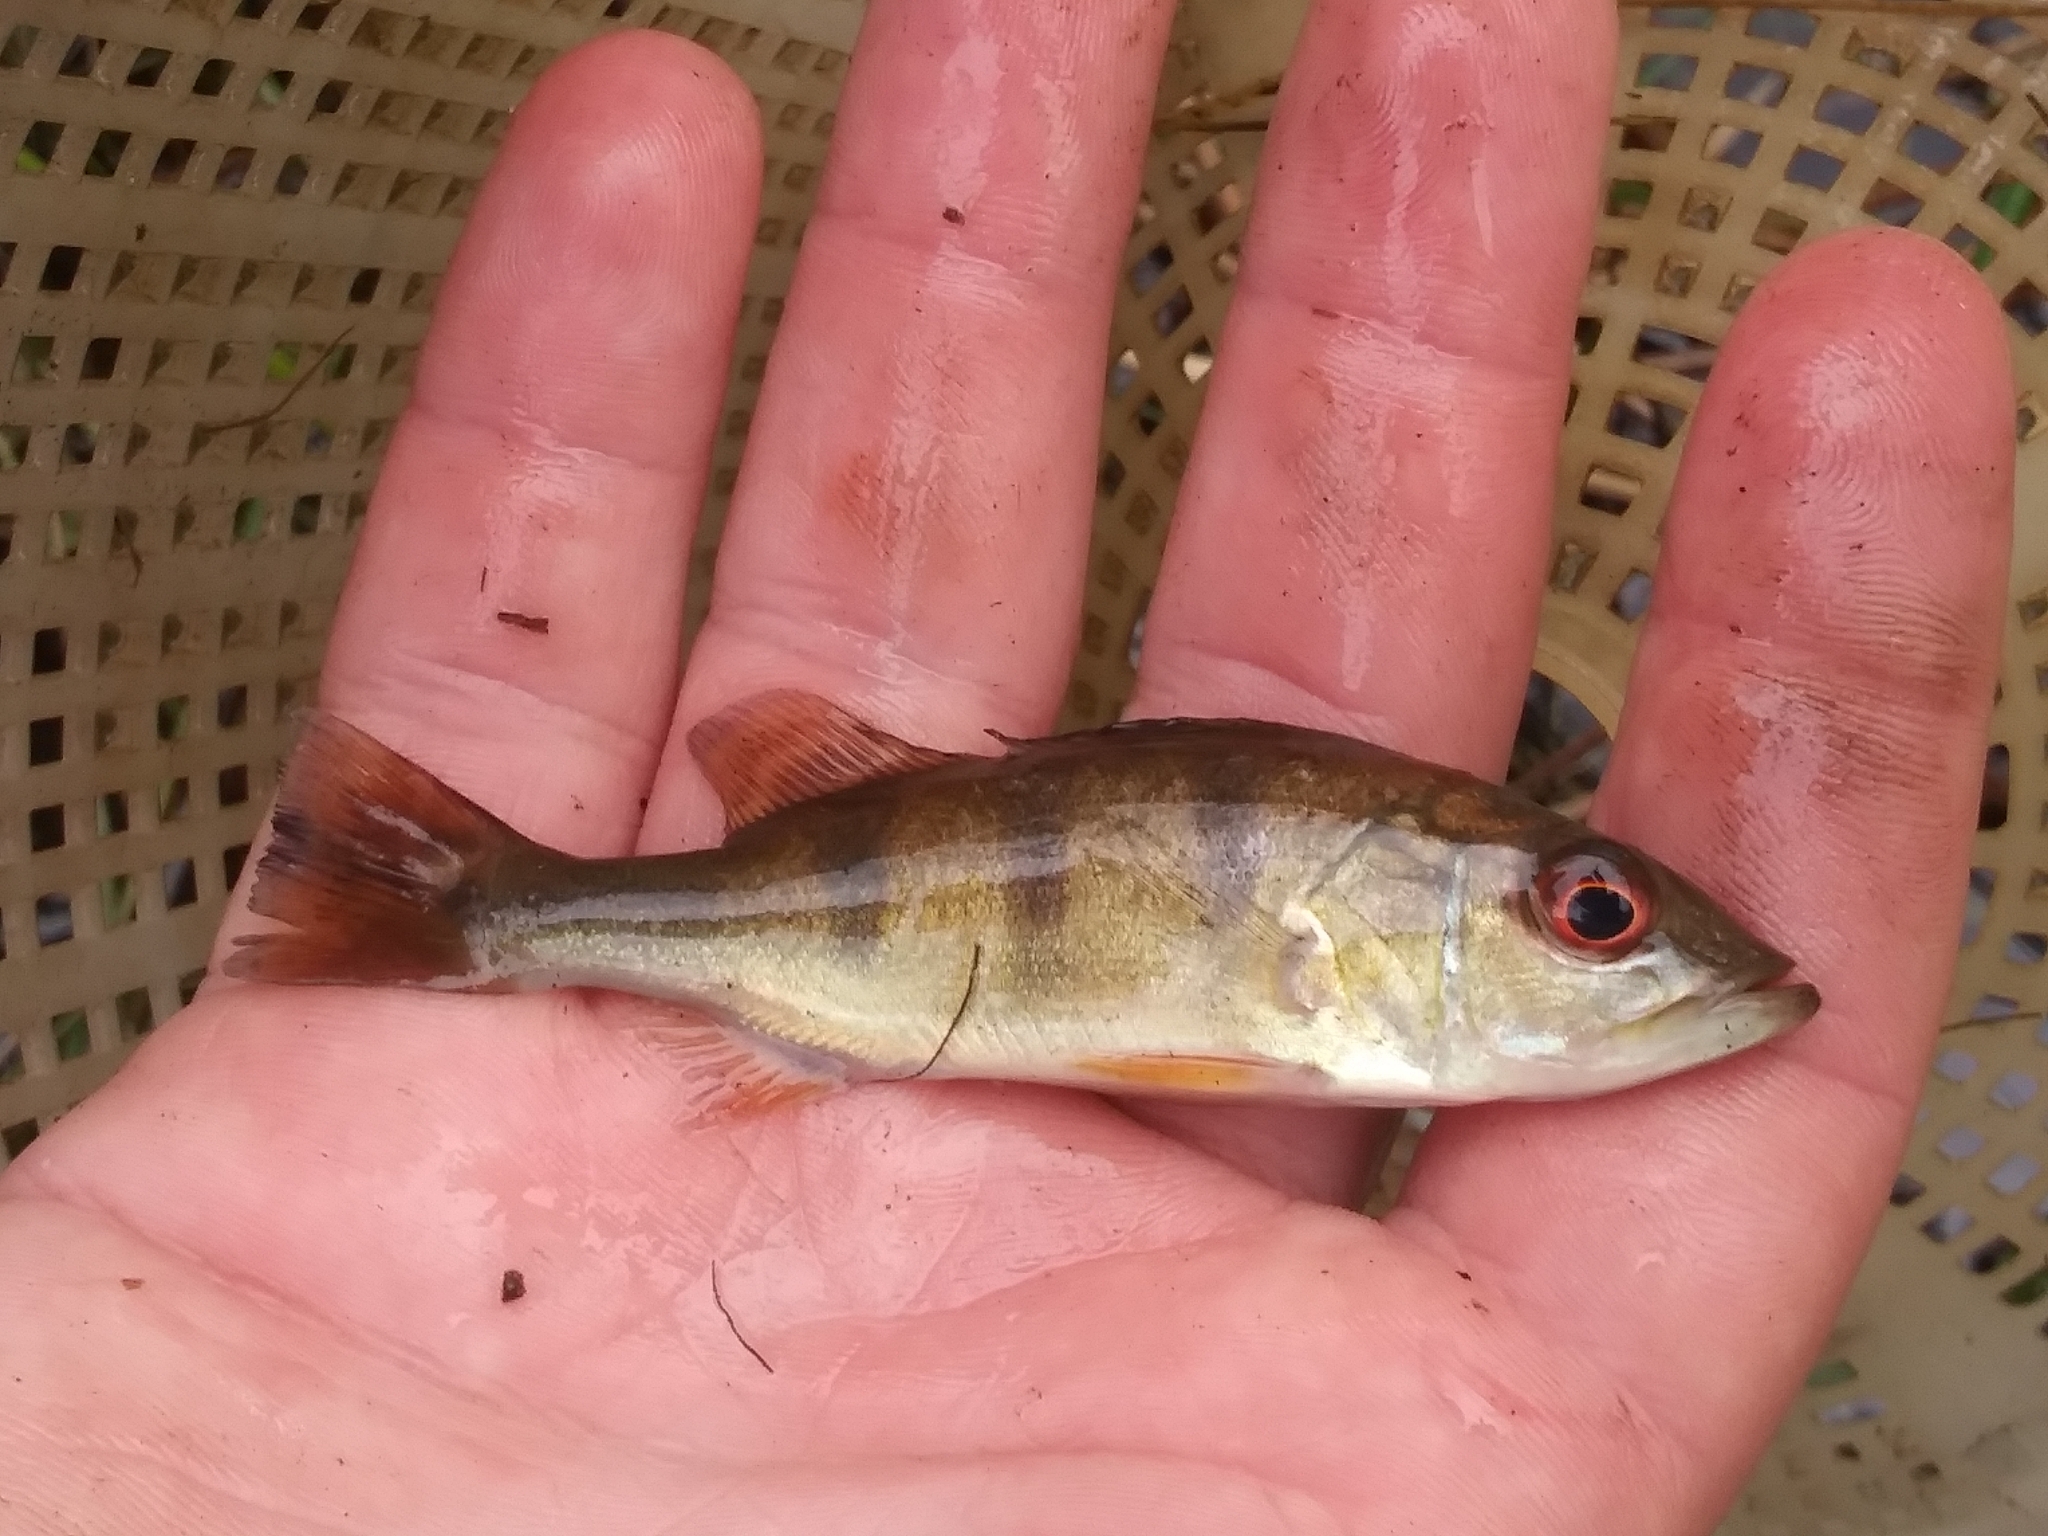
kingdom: Animalia
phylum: Chordata
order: Perciformes
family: Cichlidae
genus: Cichla
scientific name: Cichla ocellaris
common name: Peacock cichlid
